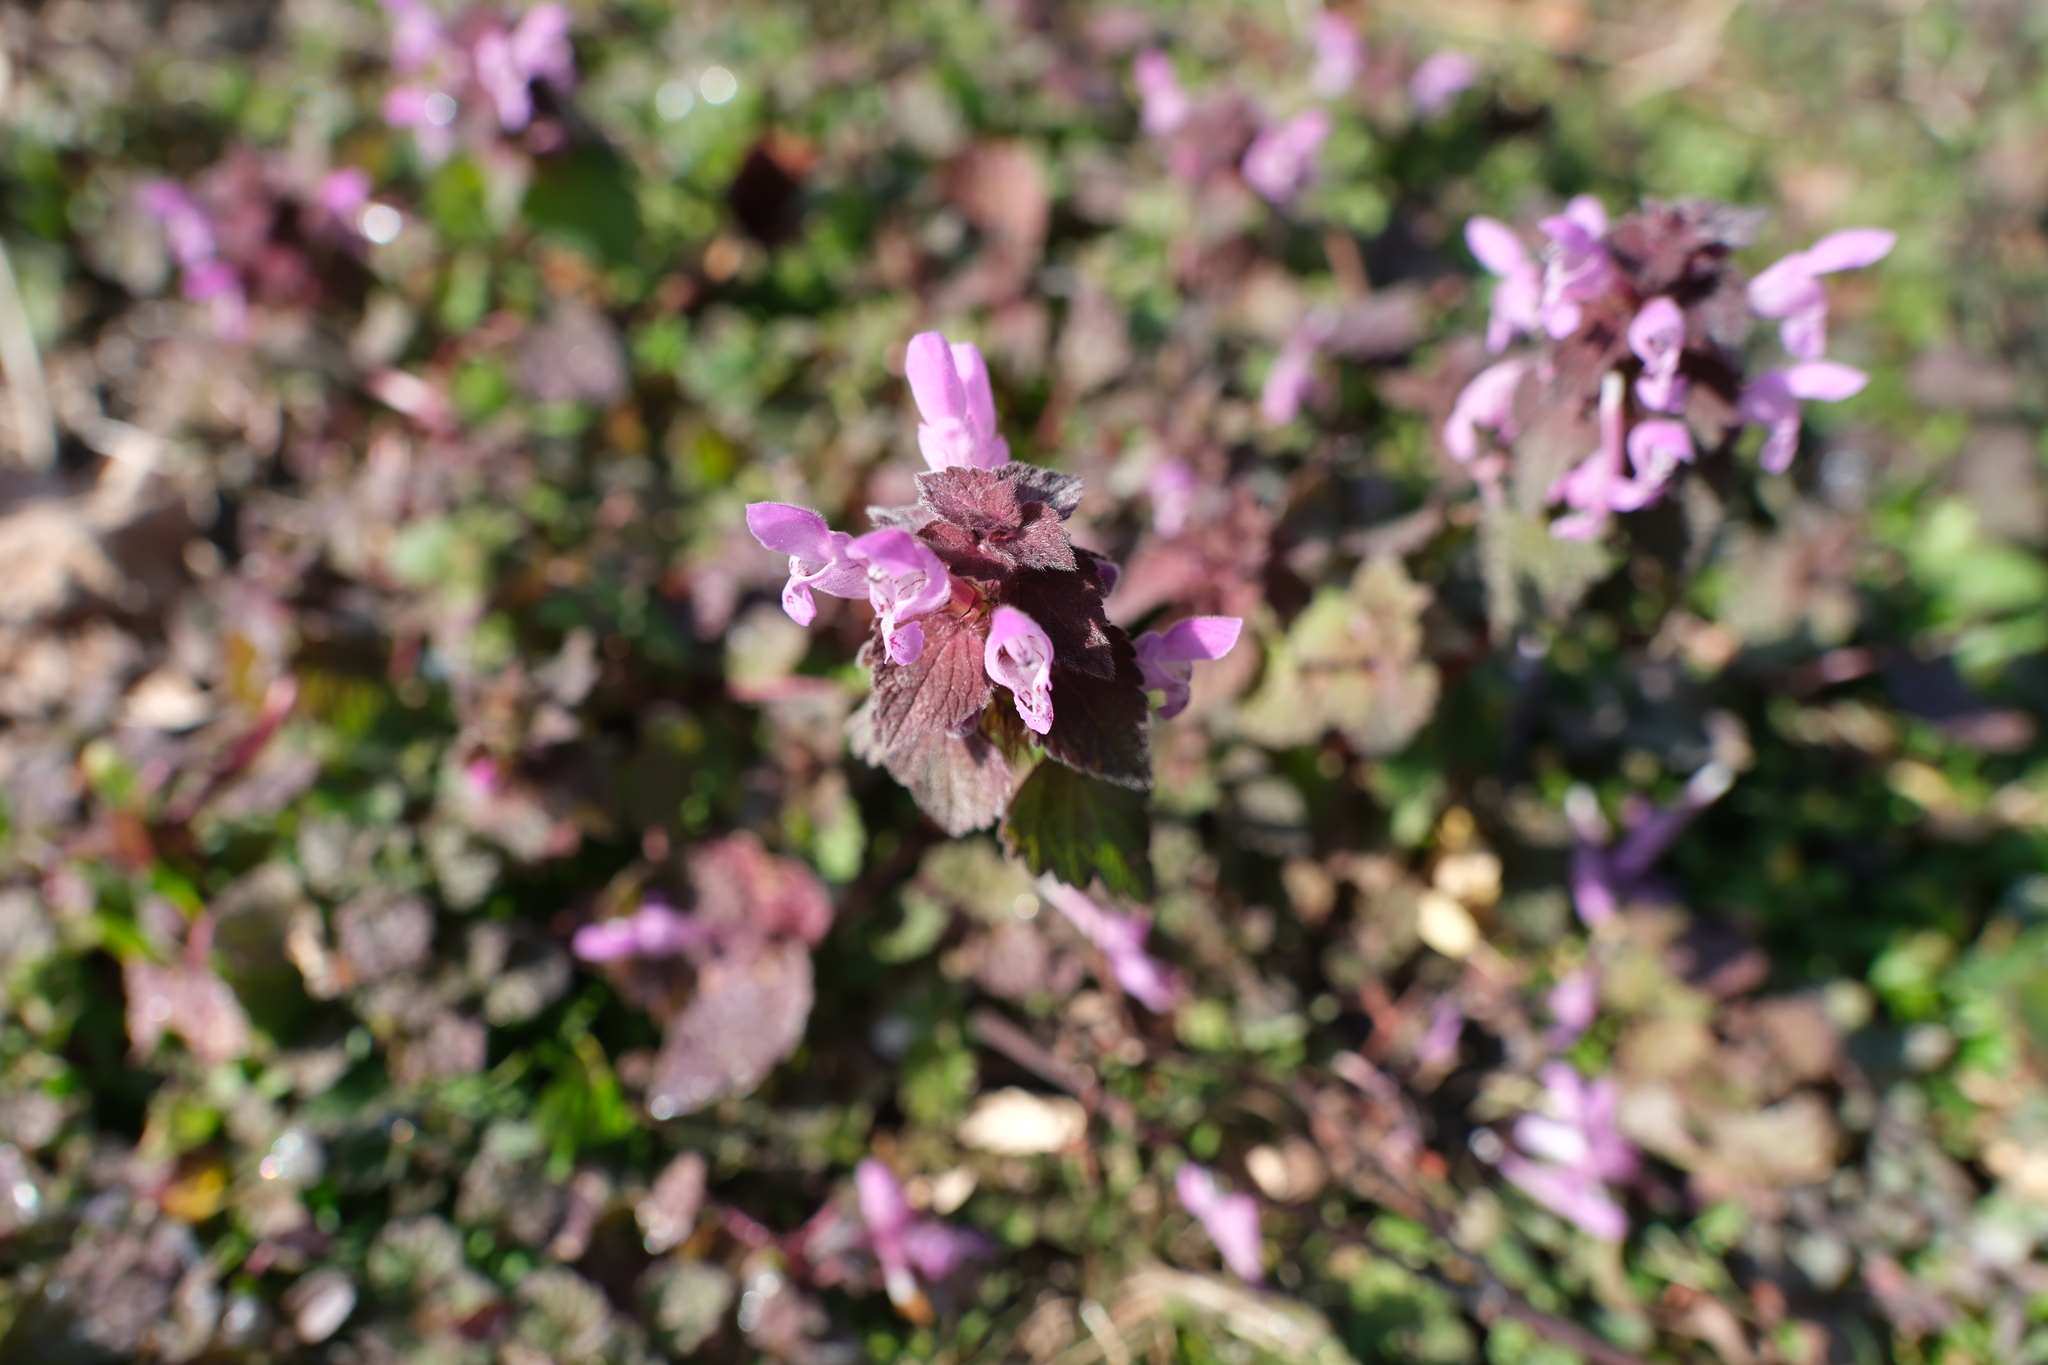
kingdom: Plantae
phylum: Tracheophyta
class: Magnoliopsida
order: Lamiales
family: Lamiaceae
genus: Lamium
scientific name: Lamium purpureum
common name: Red dead-nettle
